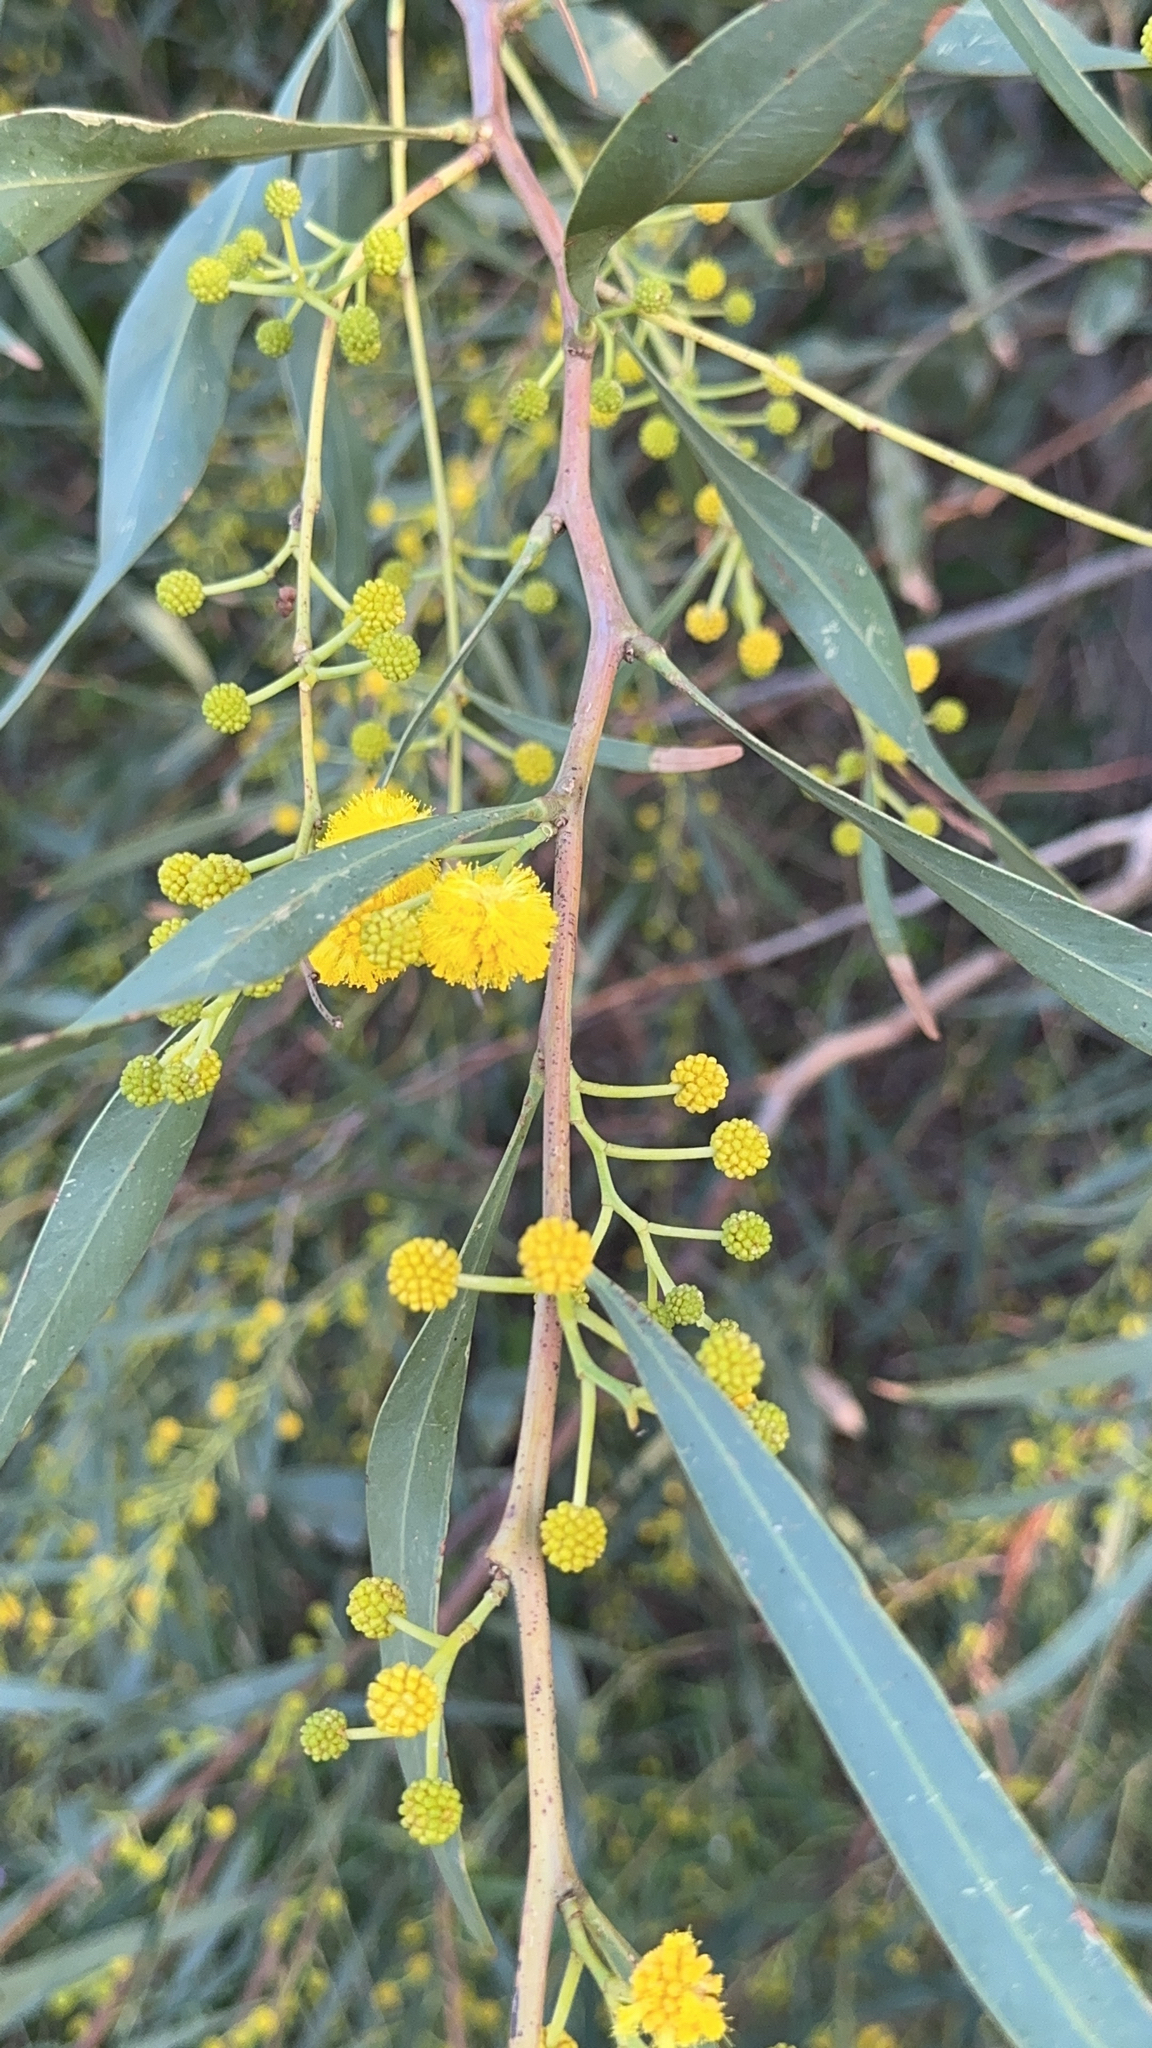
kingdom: Plantae
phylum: Tracheophyta
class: Magnoliopsida
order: Fabales
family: Fabaceae
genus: Acacia
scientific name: Acacia saligna
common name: Orange wattle
